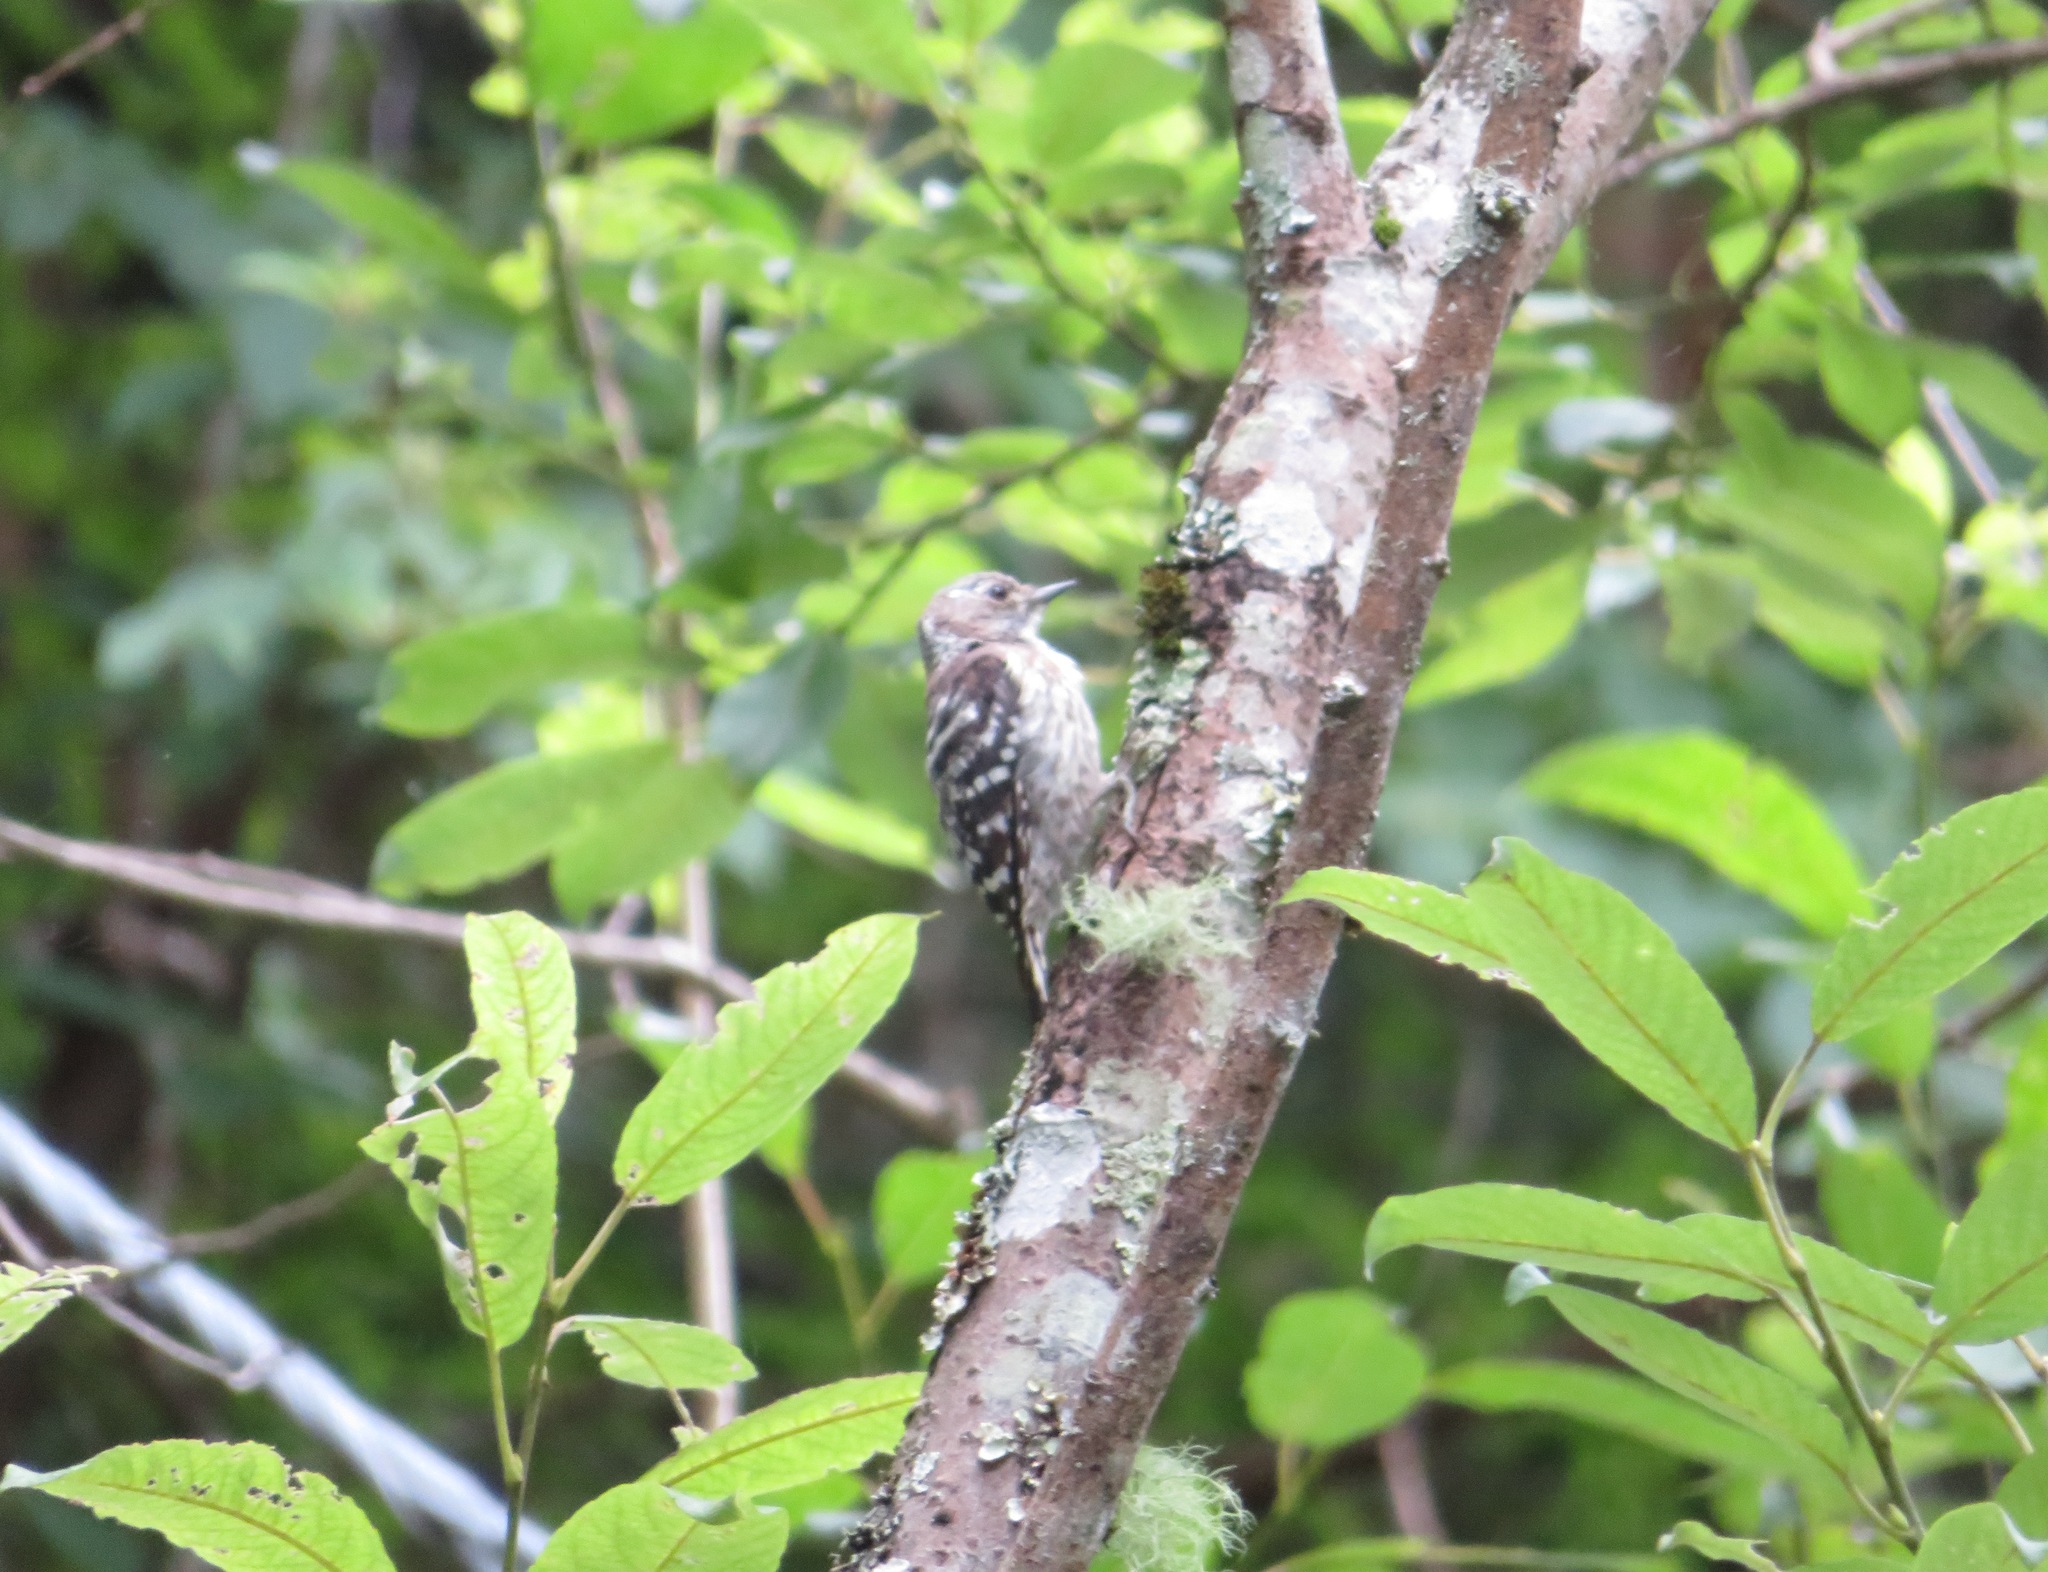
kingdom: Animalia
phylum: Chordata
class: Aves
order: Piciformes
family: Picidae
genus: Yungipicus
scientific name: Yungipicus kizuki
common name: Japanese pygmy woodpecker
